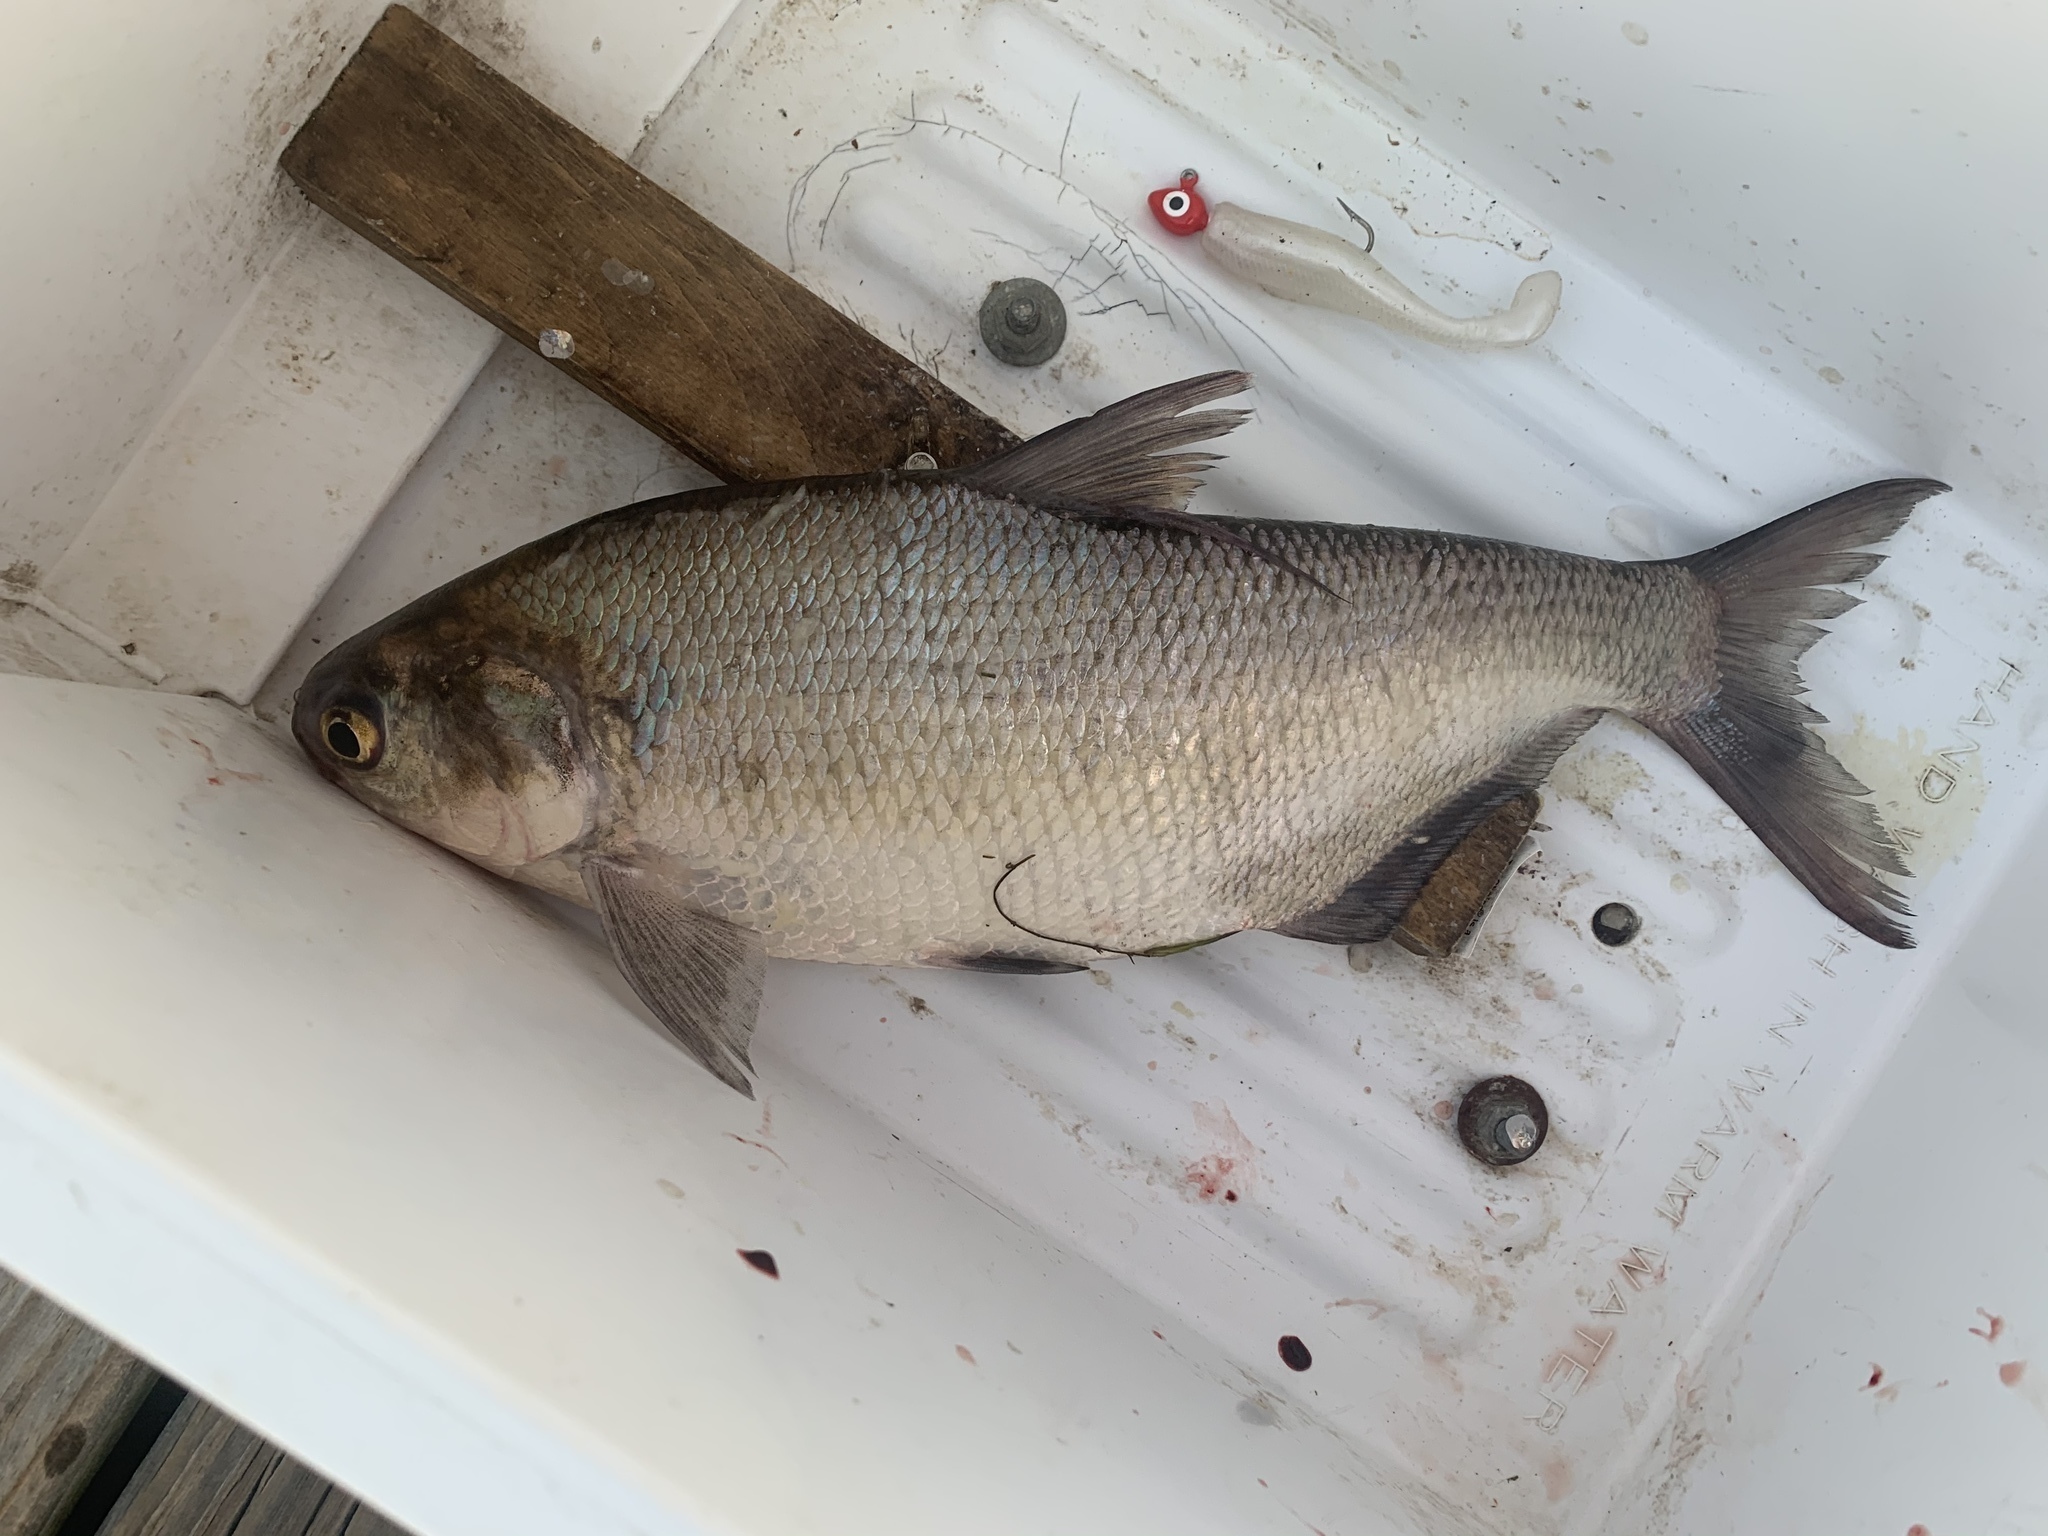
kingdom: Animalia
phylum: Chordata
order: Clupeiformes
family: Clupeidae
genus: Dorosoma
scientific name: Dorosoma cepedianum
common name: Gizzard shad
